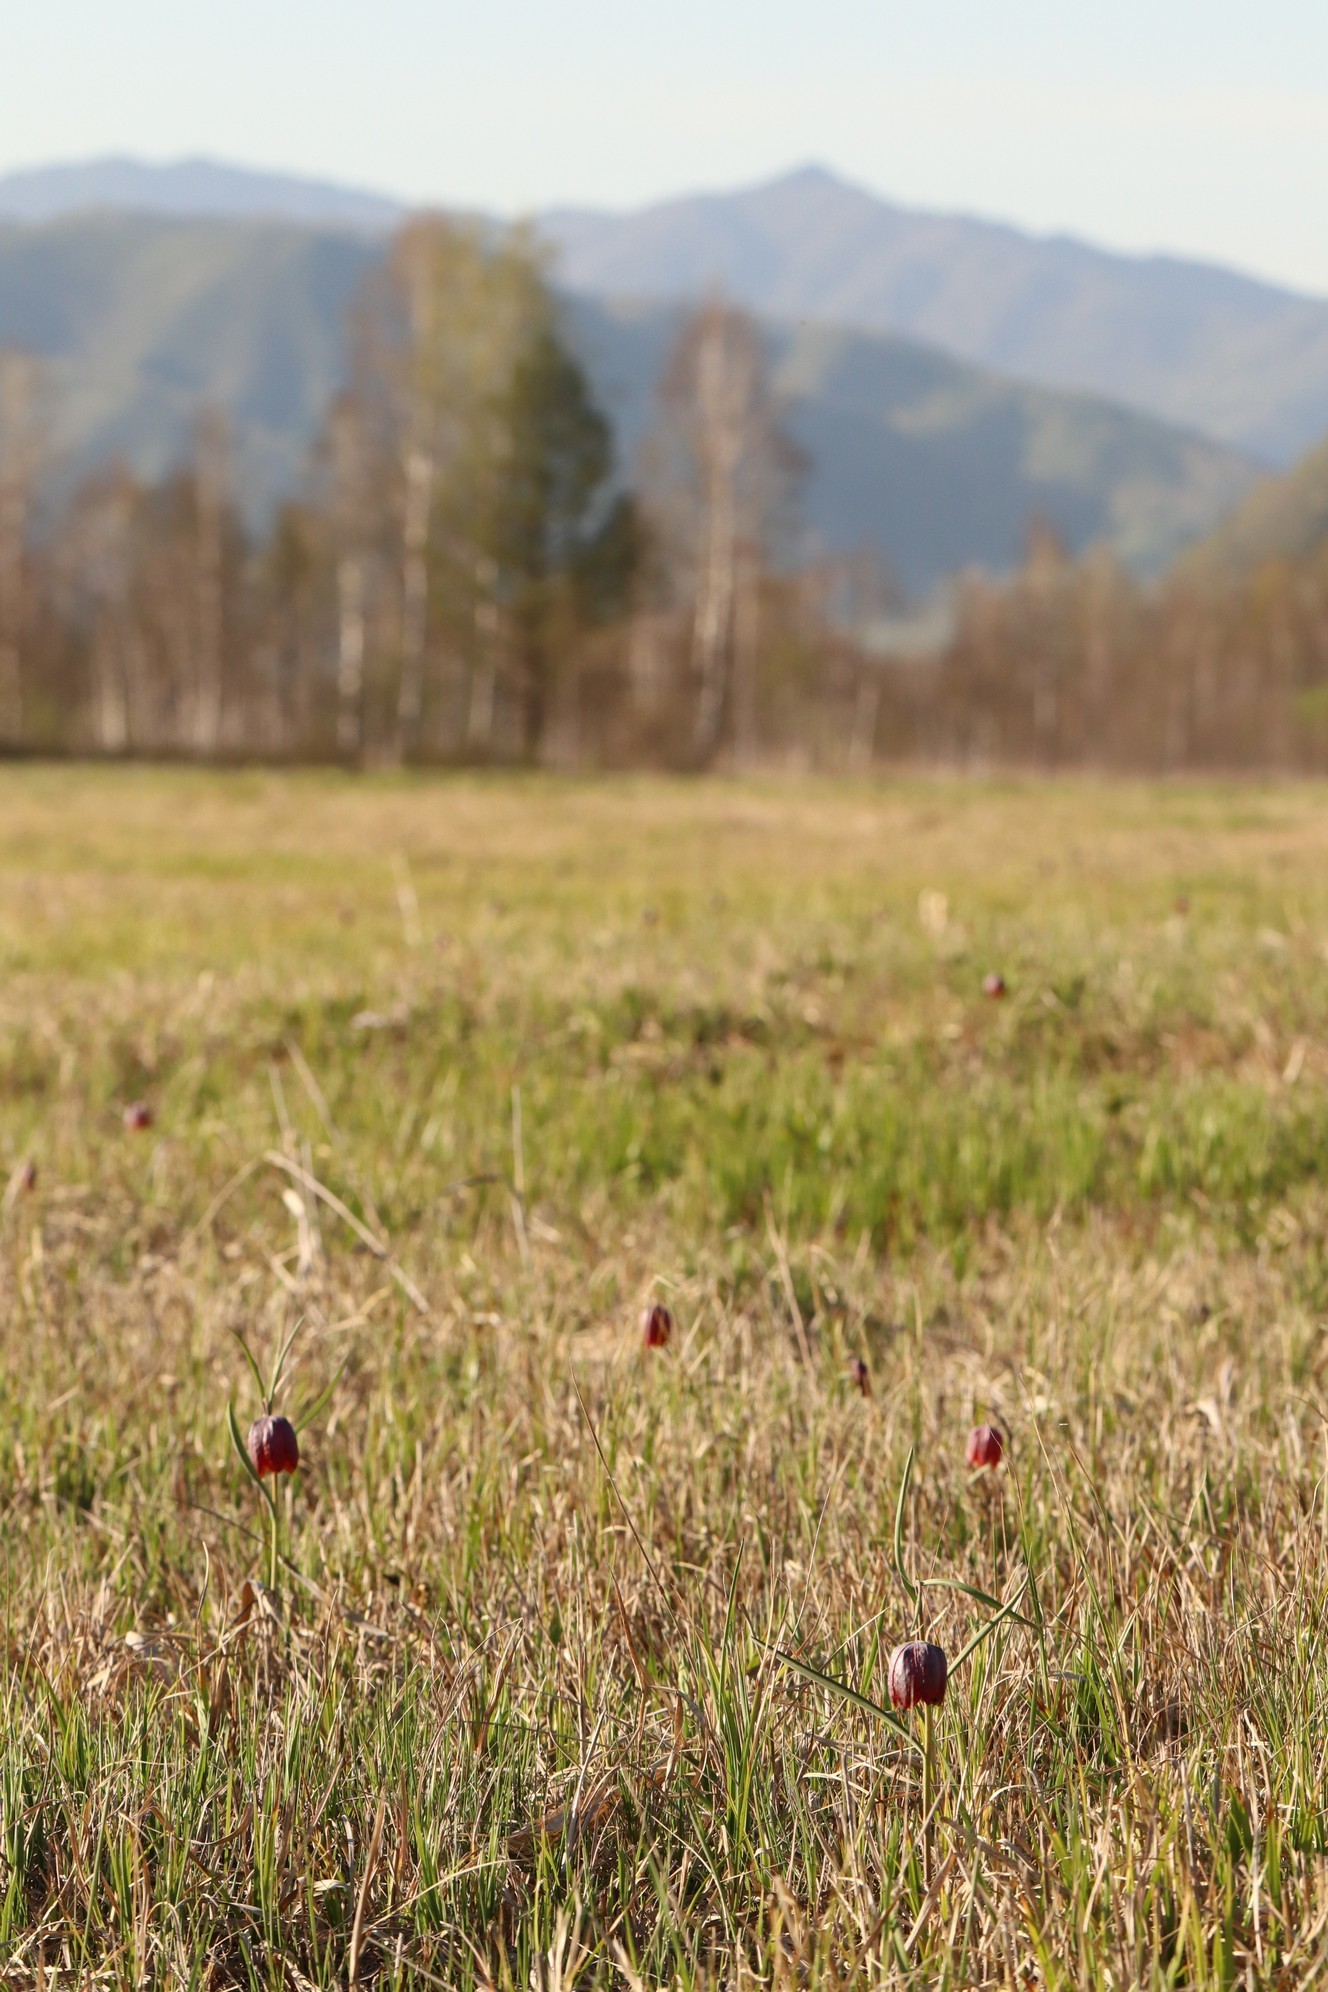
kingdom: Plantae
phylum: Tracheophyta
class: Liliopsida
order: Liliales
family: Liliaceae
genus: Fritillaria
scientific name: Fritillaria meleagris
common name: Fritillary
